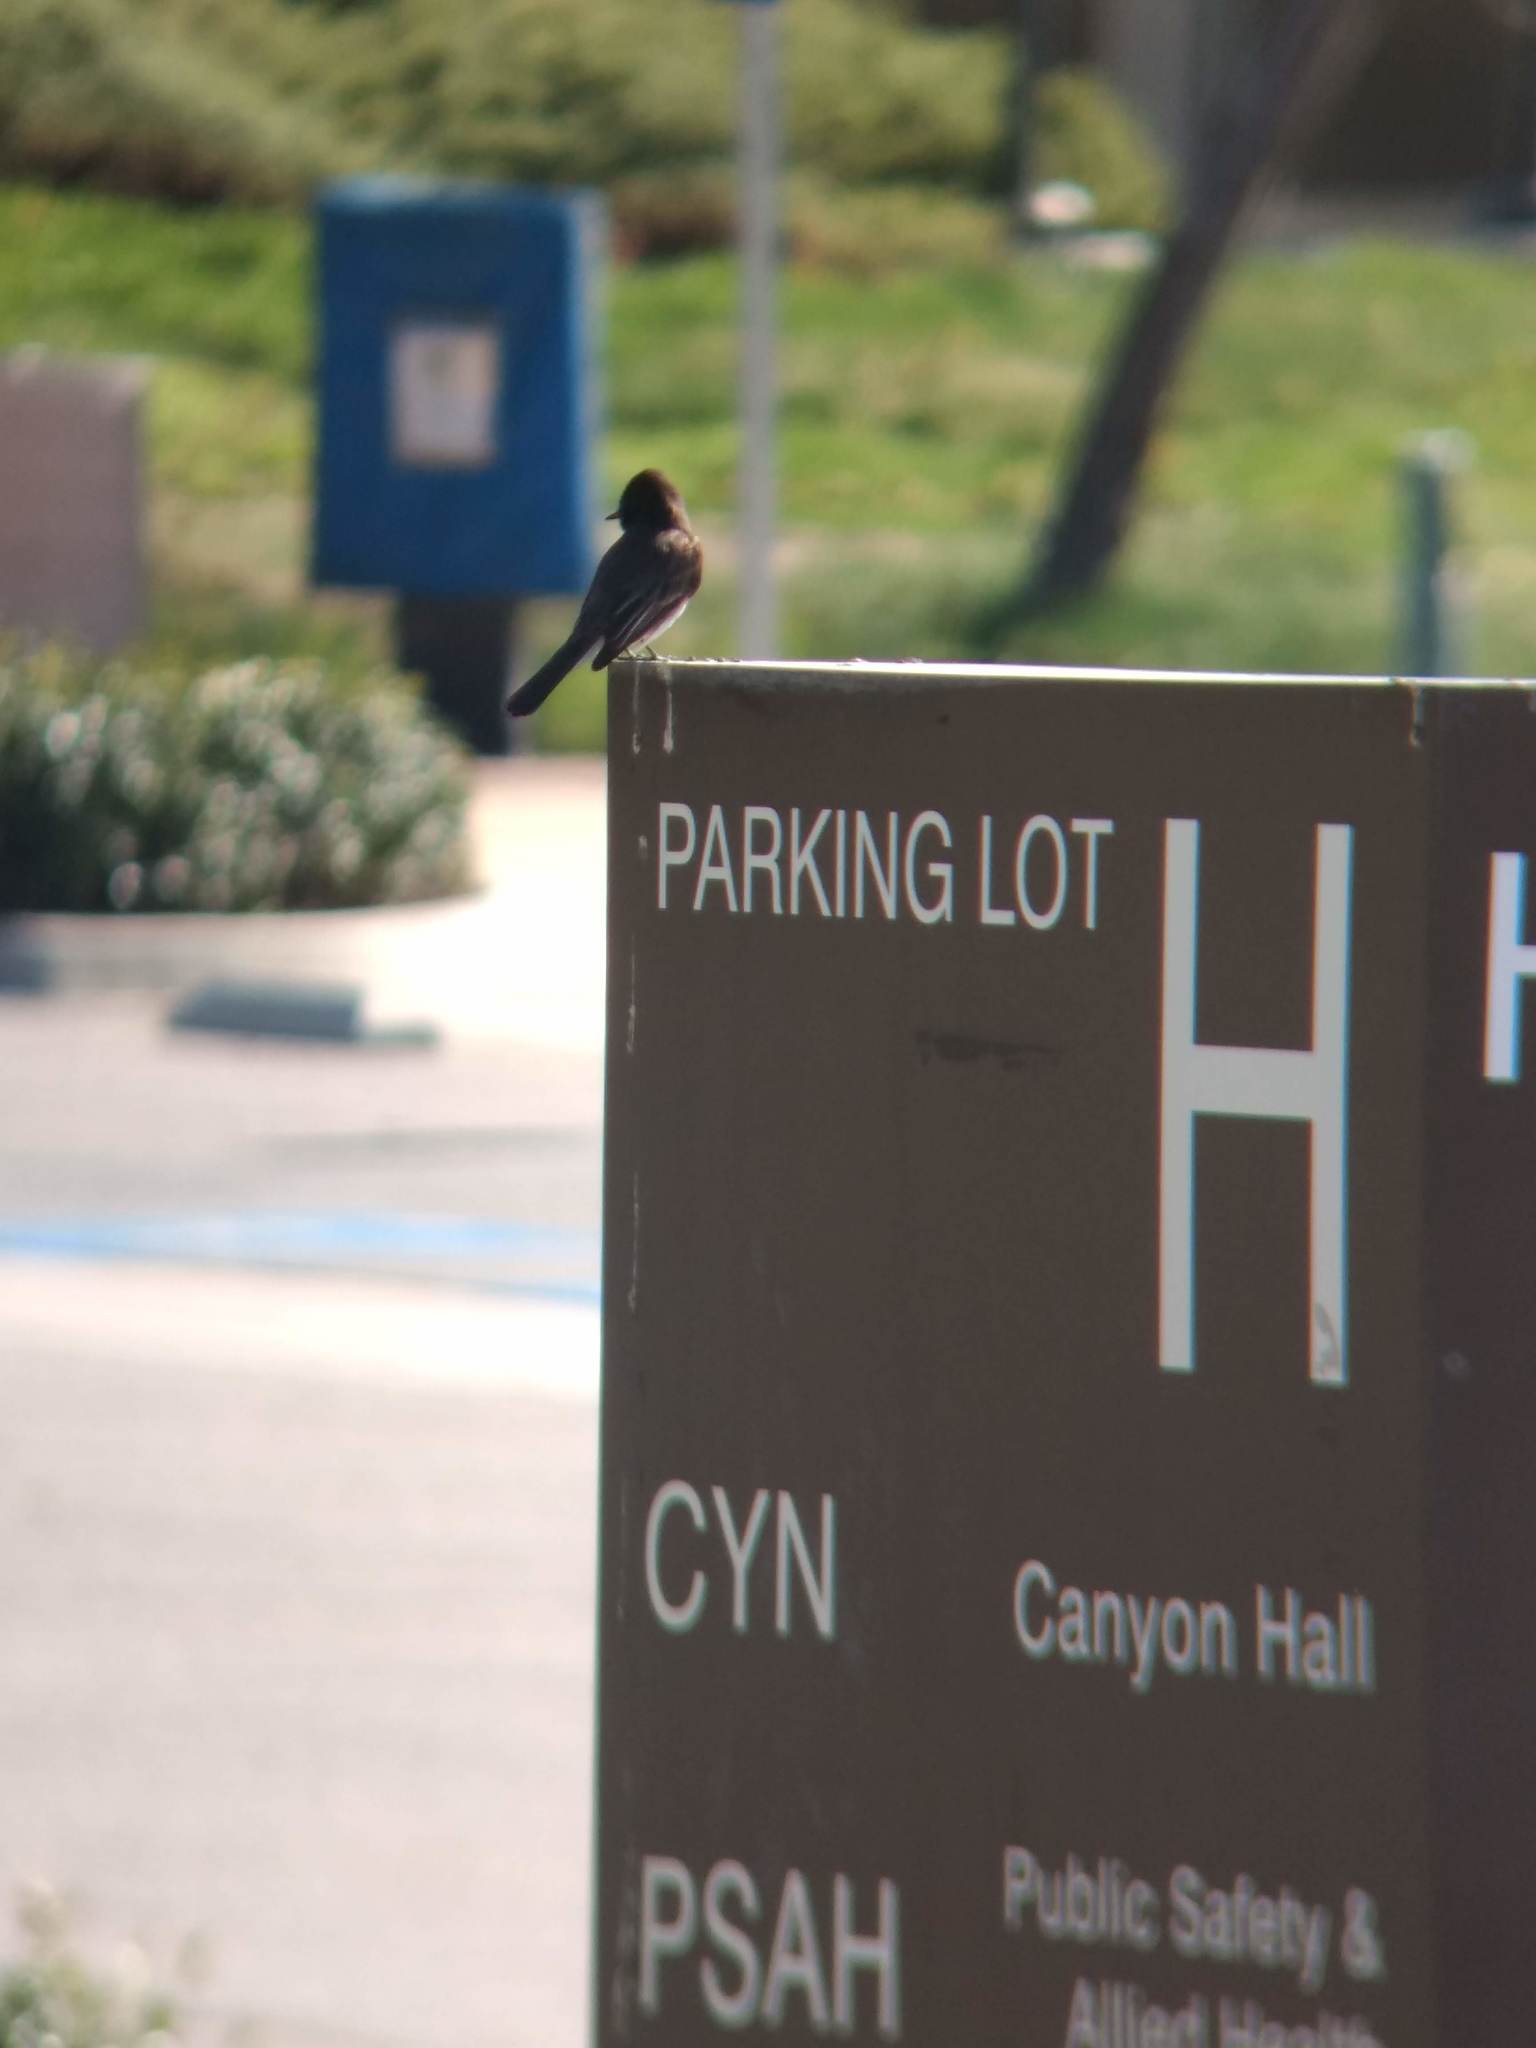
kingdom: Animalia
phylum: Chordata
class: Aves
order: Passeriformes
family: Tyrannidae
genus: Sayornis
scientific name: Sayornis nigricans
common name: Black phoebe
